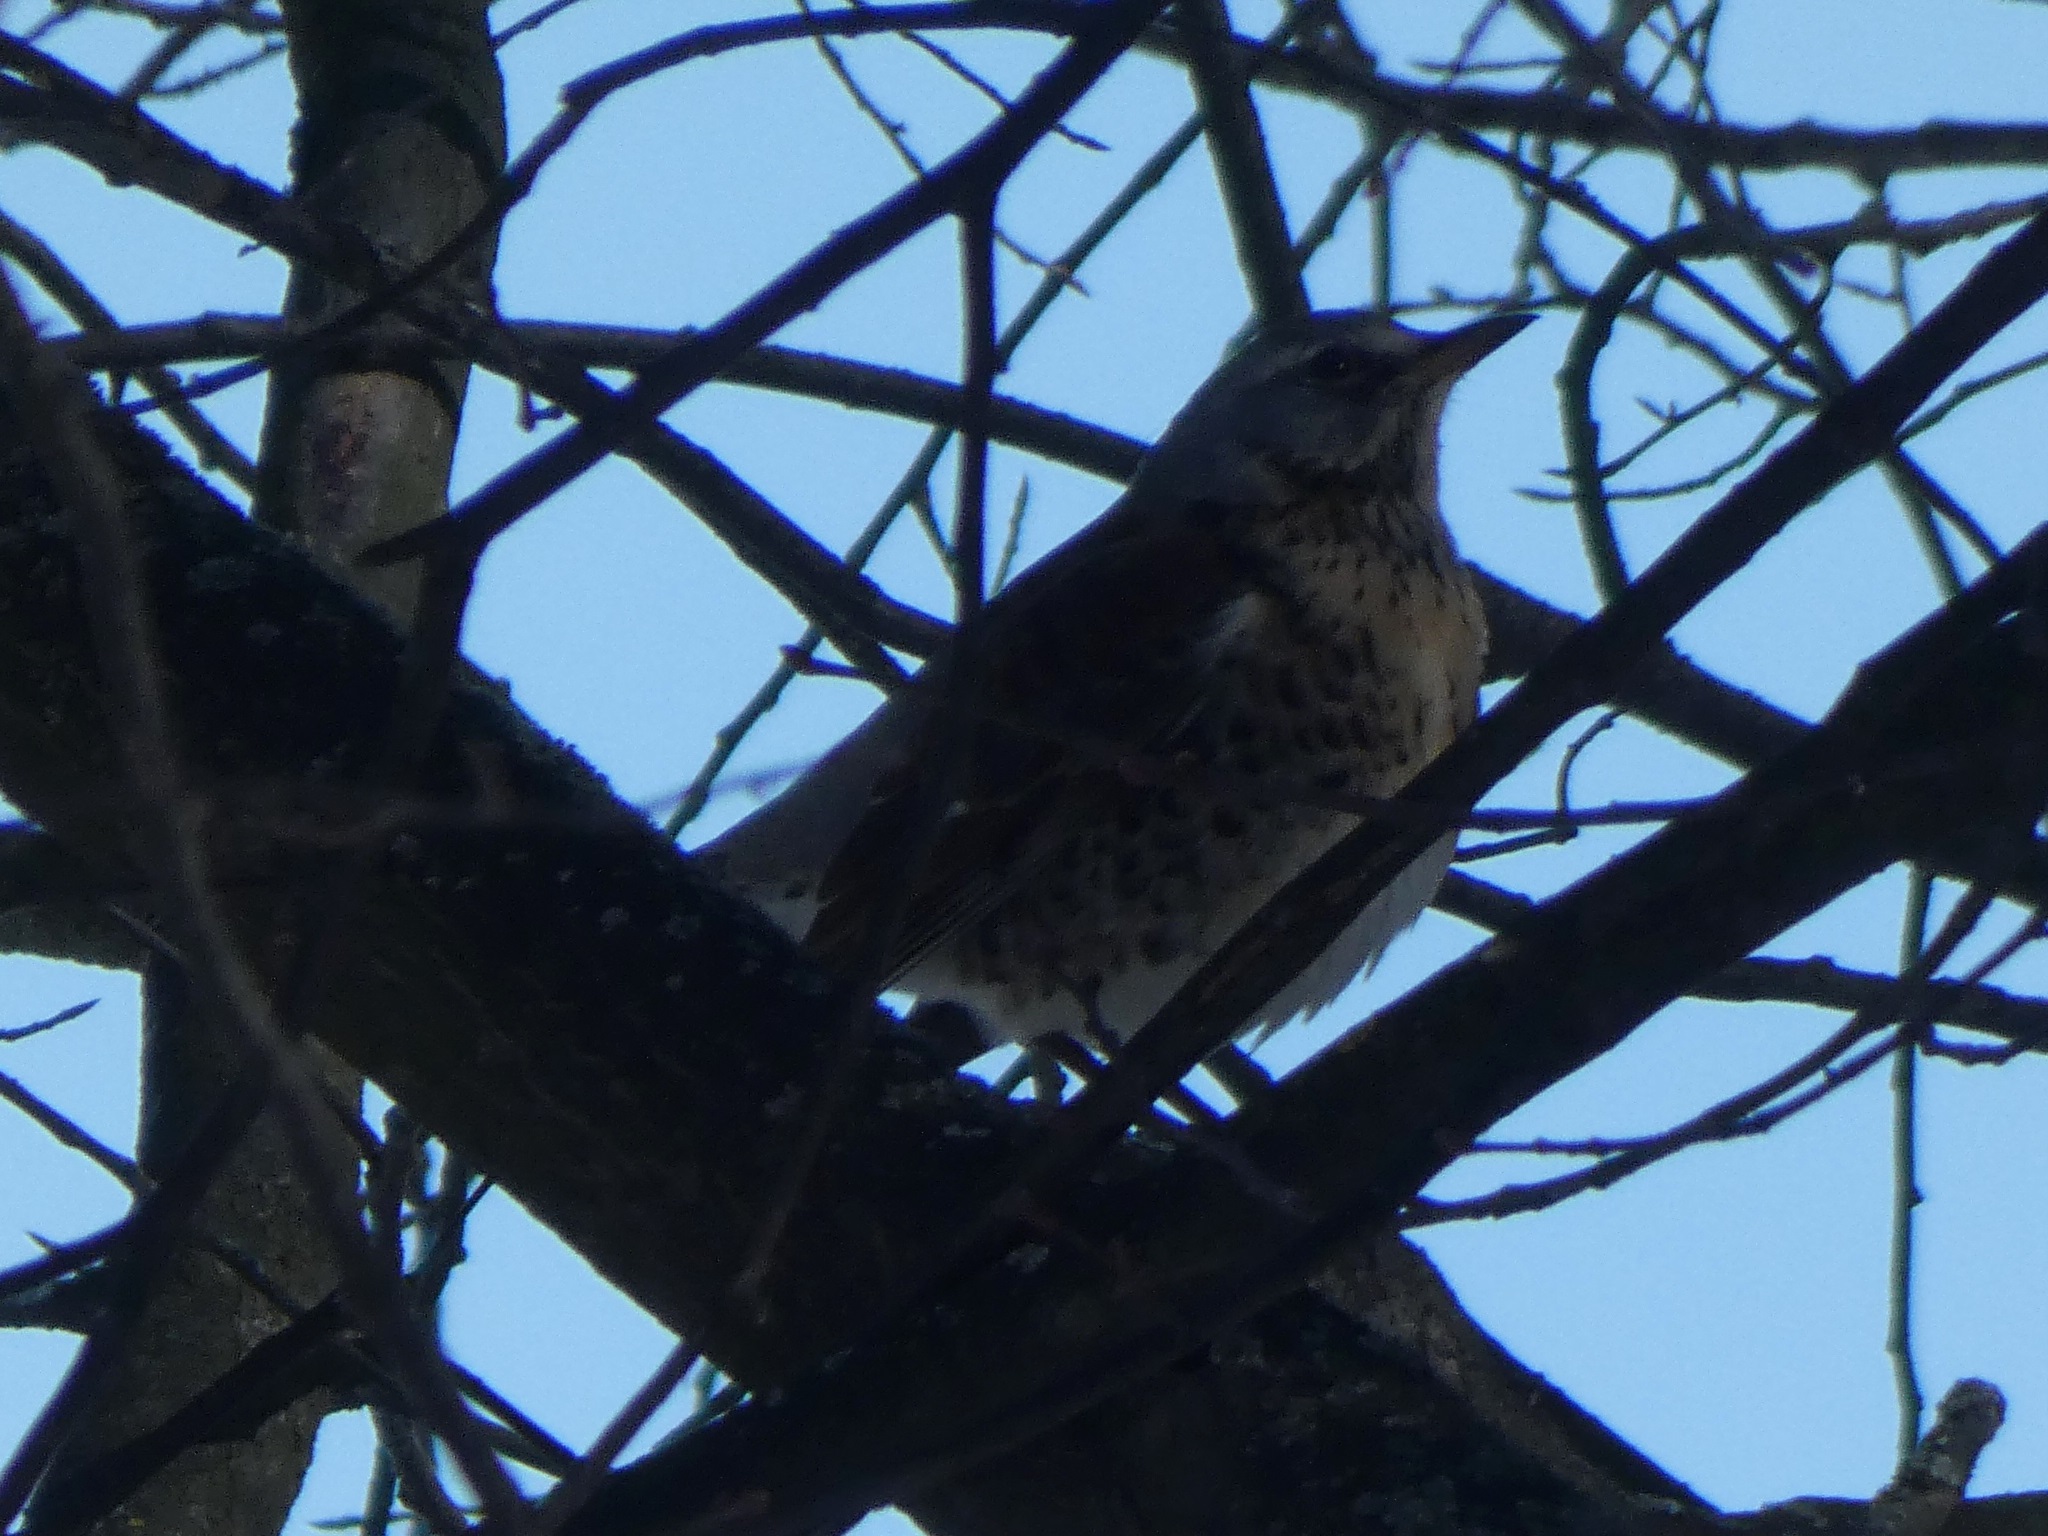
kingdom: Animalia
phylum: Chordata
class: Aves
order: Passeriformes
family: Turdidae
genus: Turdus
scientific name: Turdus pilaris
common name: Fieldfare
